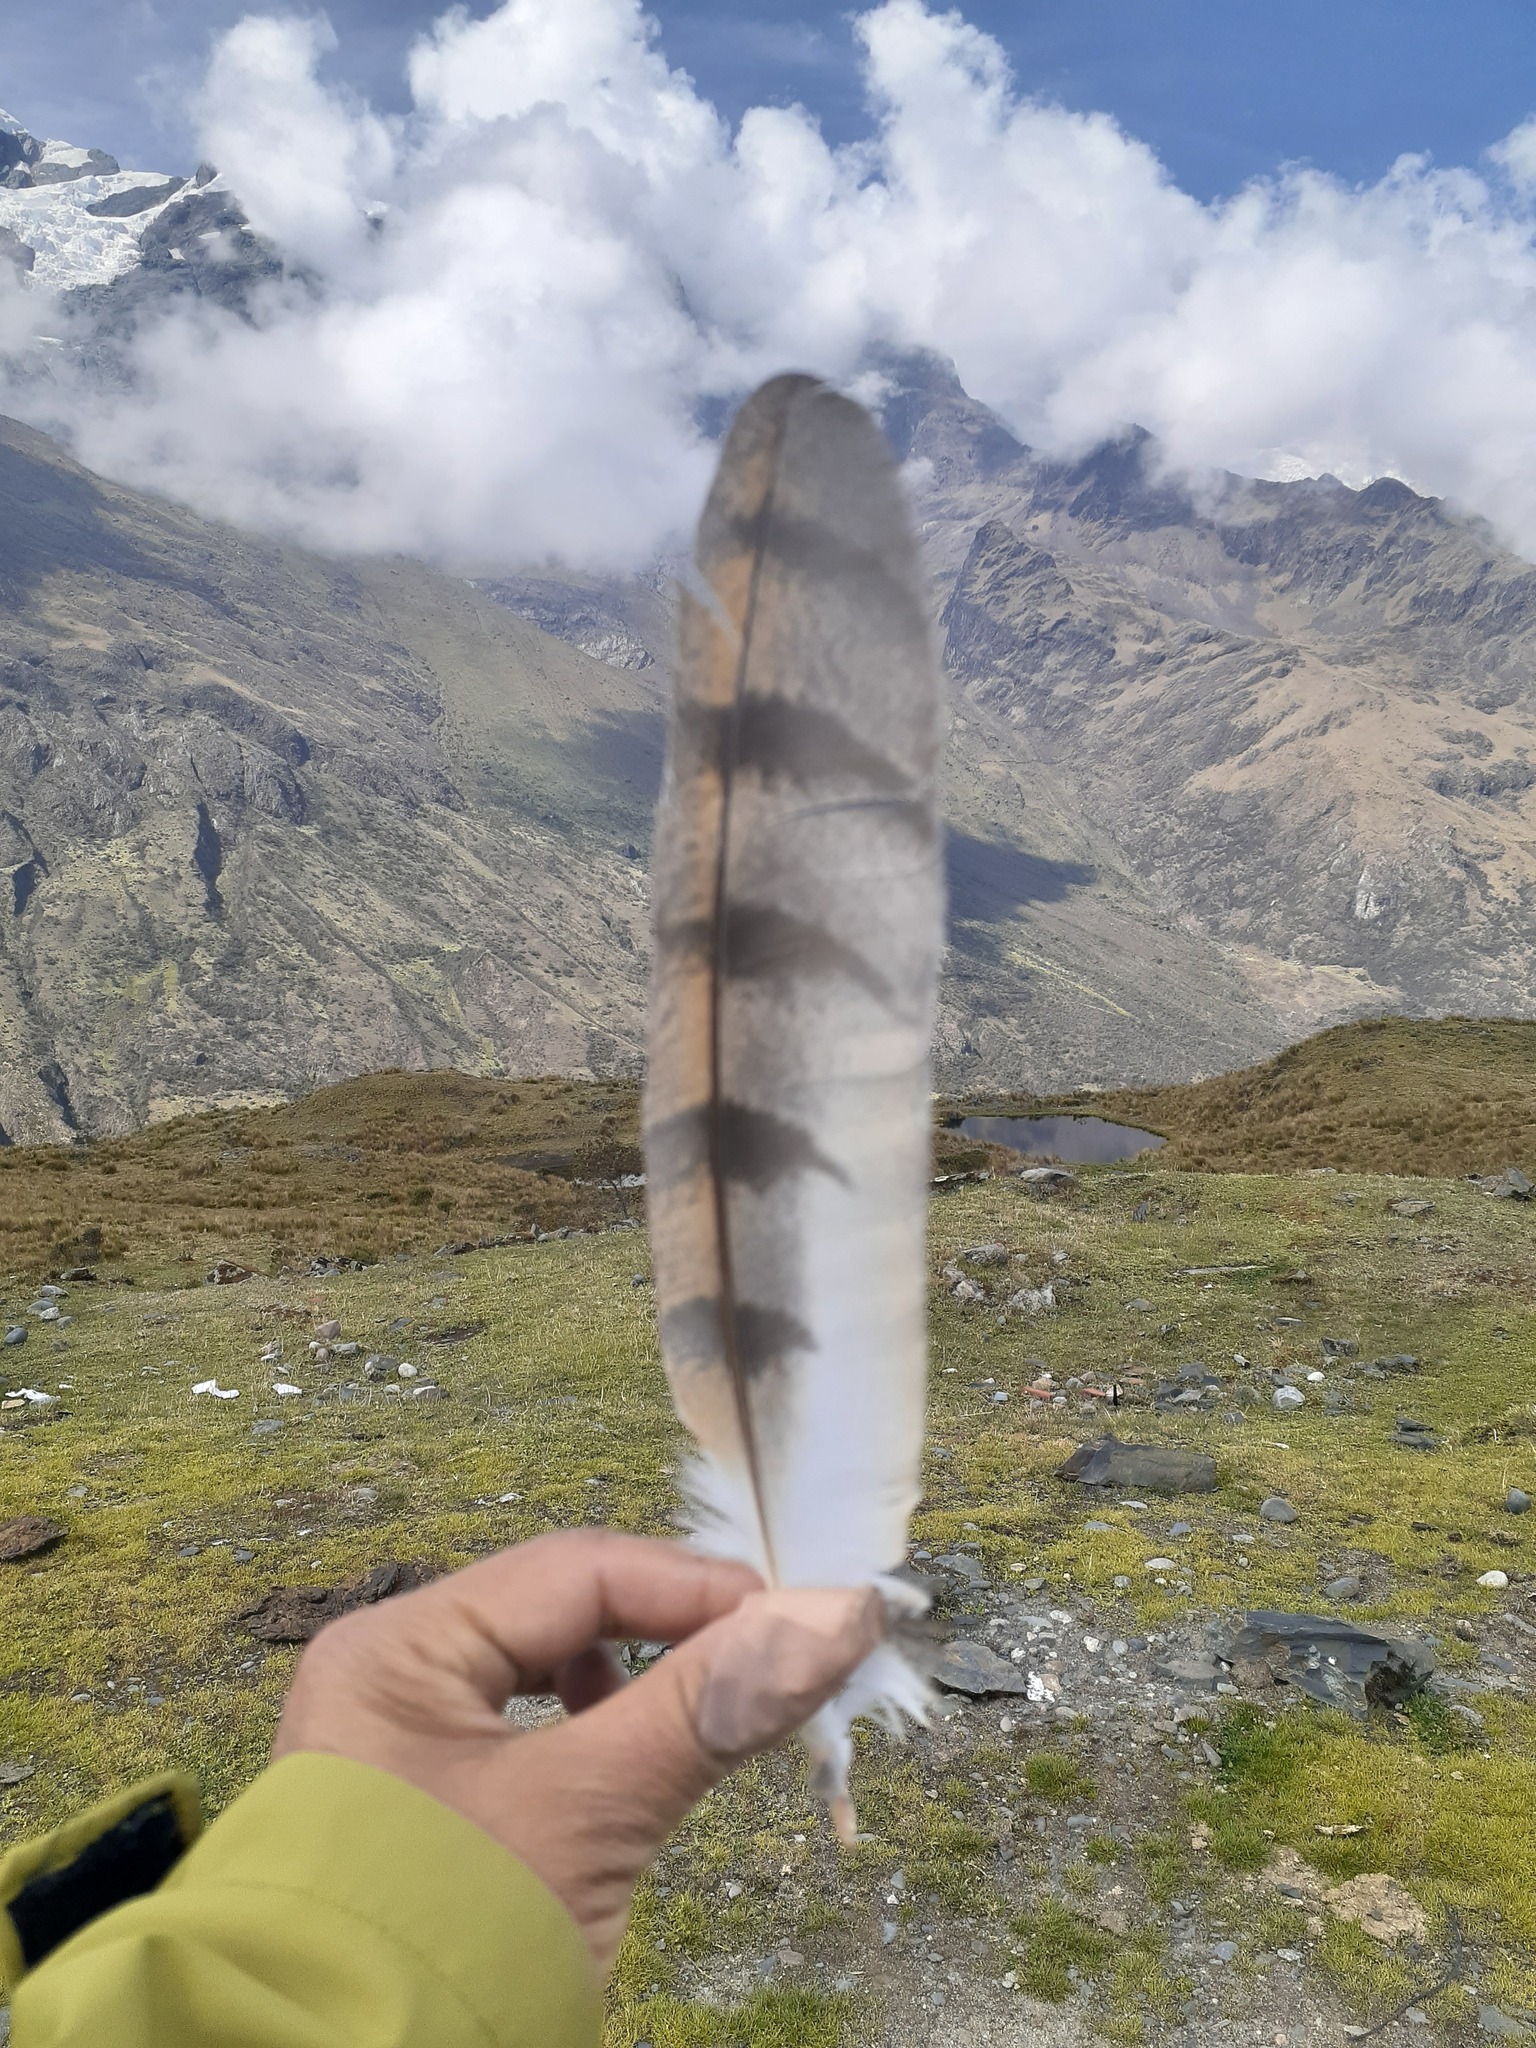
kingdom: Animalia
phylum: Chordata
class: Aves
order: Strigiformes
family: Tytonidae
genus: Tyto
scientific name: Tyto alba
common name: Barn owl
